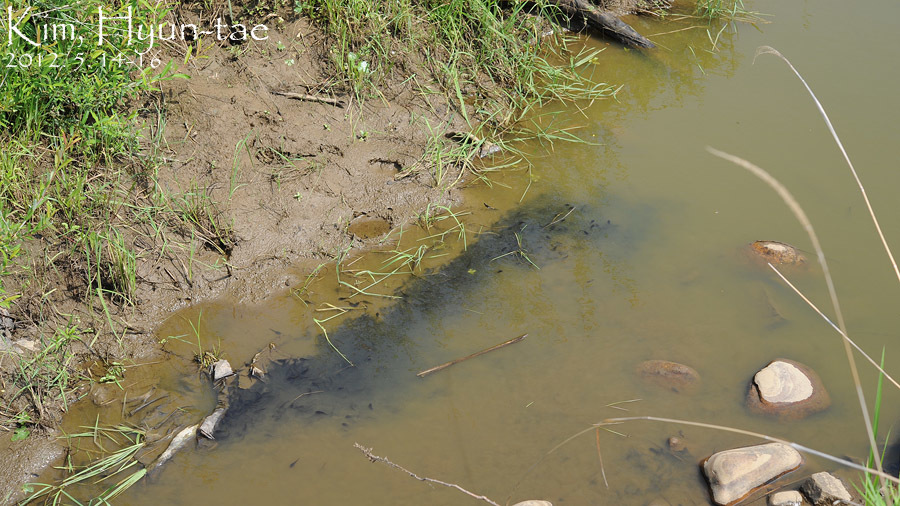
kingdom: Animalia
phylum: Chordata
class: Amphibia
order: Anura
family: Bufonidae
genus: Bufo
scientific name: Bufo gargarizans
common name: Asiatic toad
